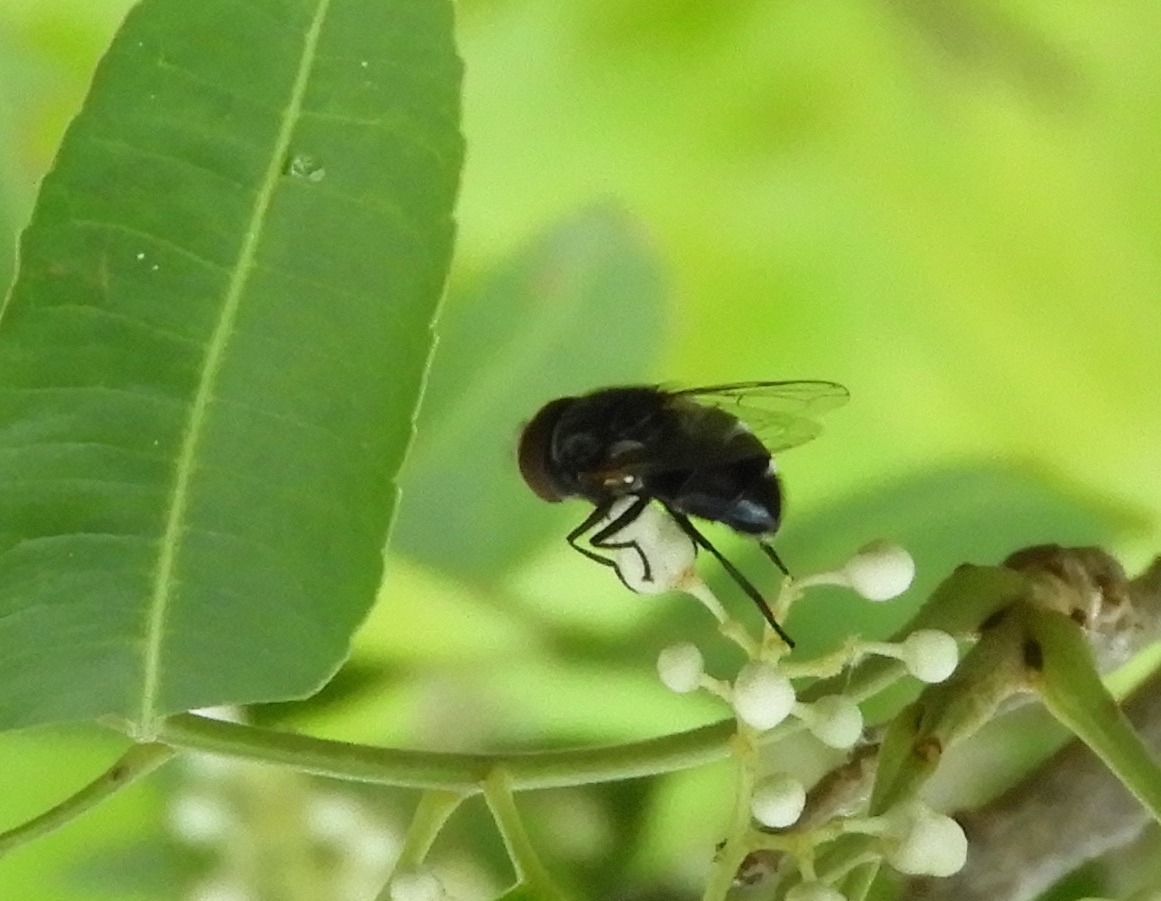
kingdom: Animalia
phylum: Arthropoda
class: Insecta
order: Diptera
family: Syrphidae
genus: Copestylum
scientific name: Copestylum chaetophorum
